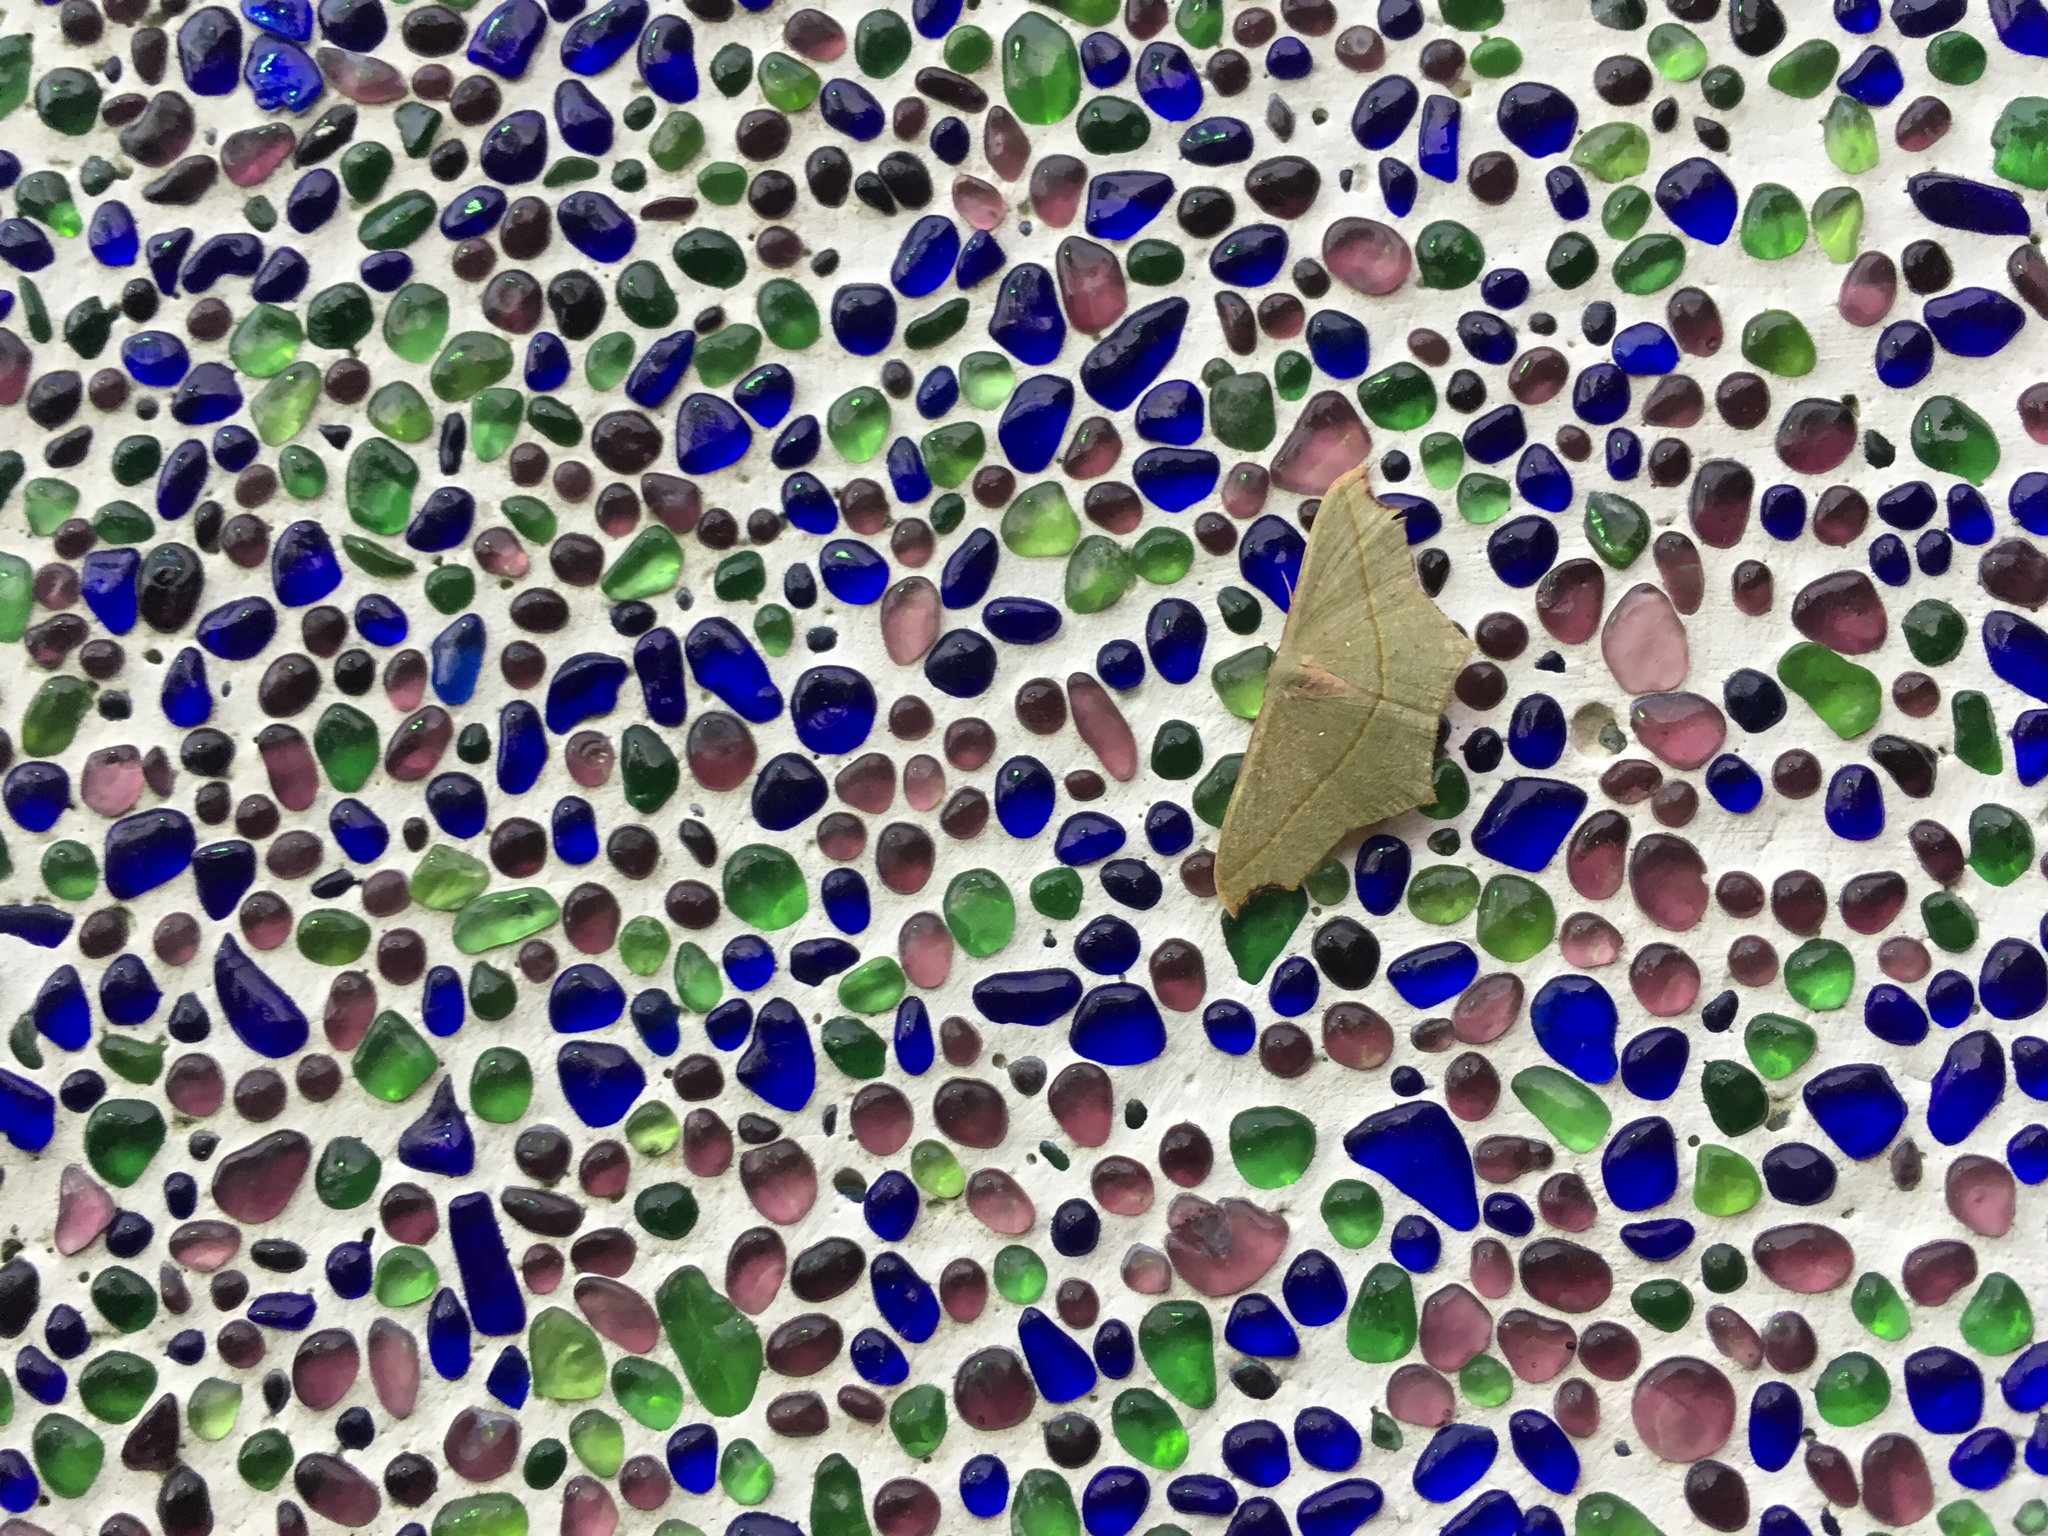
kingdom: Animalia
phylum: Arthropoda
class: Insecta
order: Lepidoptera
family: Geometridae
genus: Traminda
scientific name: Traminda aventiaria
